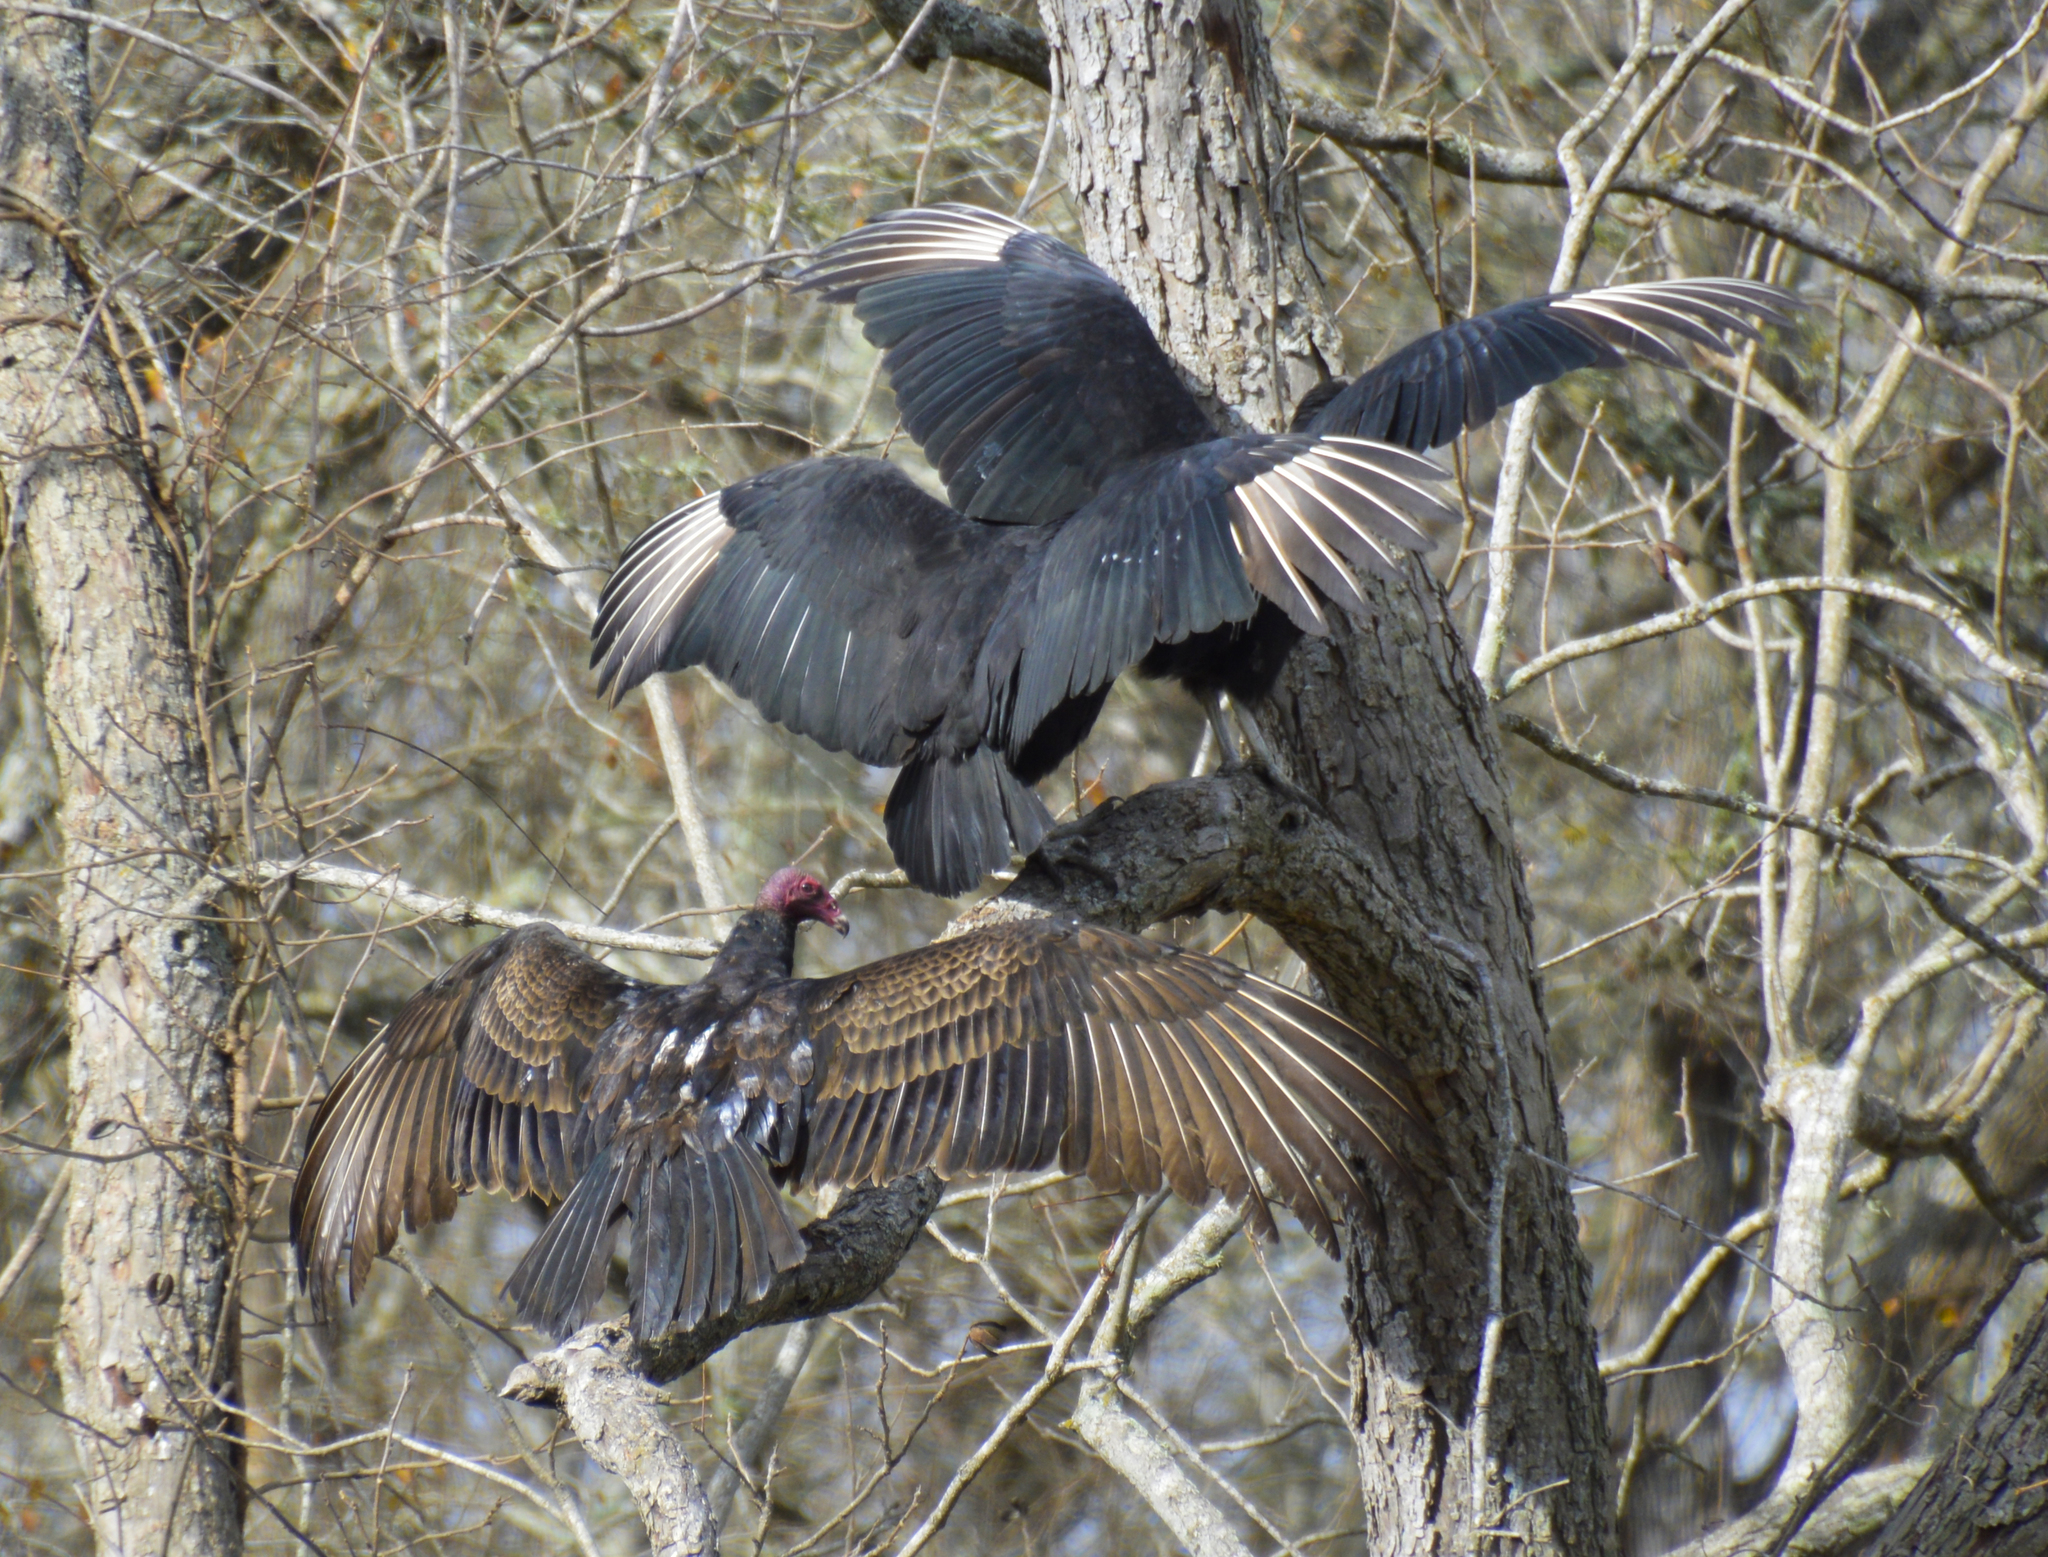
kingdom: Animalia
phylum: Chordata
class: Aves
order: Accipitriformes
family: Cathartidae
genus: Coragyps
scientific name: Coragyps atratus
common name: Black vulture
